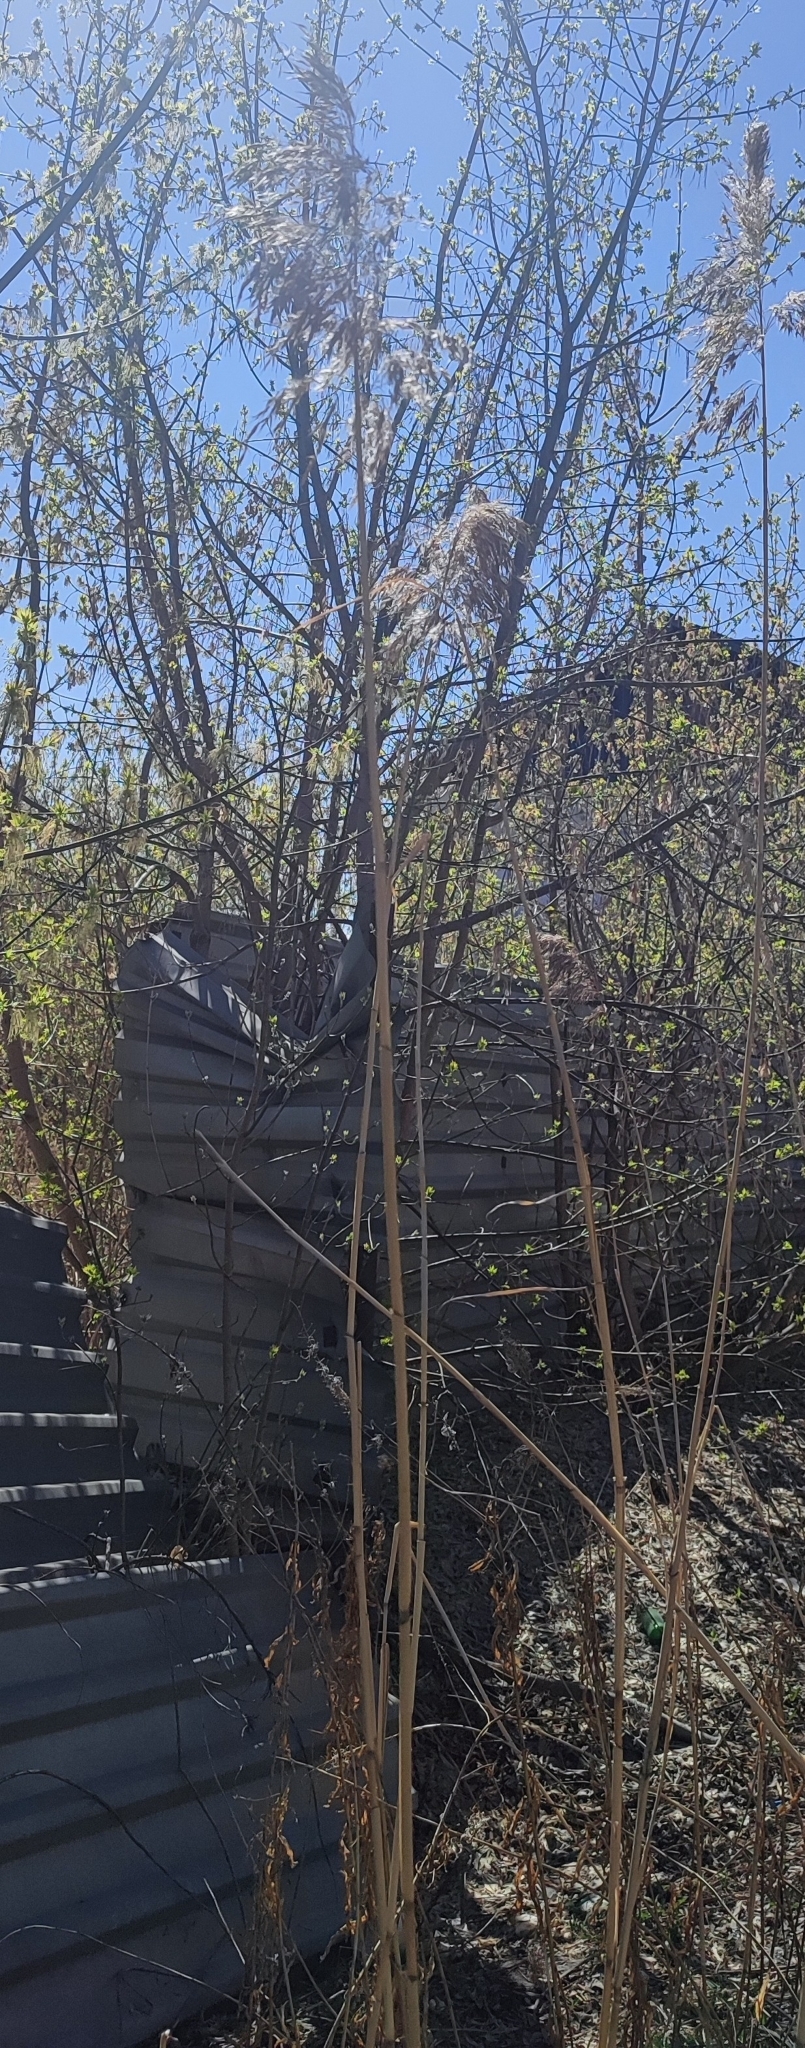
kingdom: Plantae
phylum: Tracheophyta
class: Liliopsida
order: Poales
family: Poaceae
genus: Phragmites
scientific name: Phragmites australis
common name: Common reed
